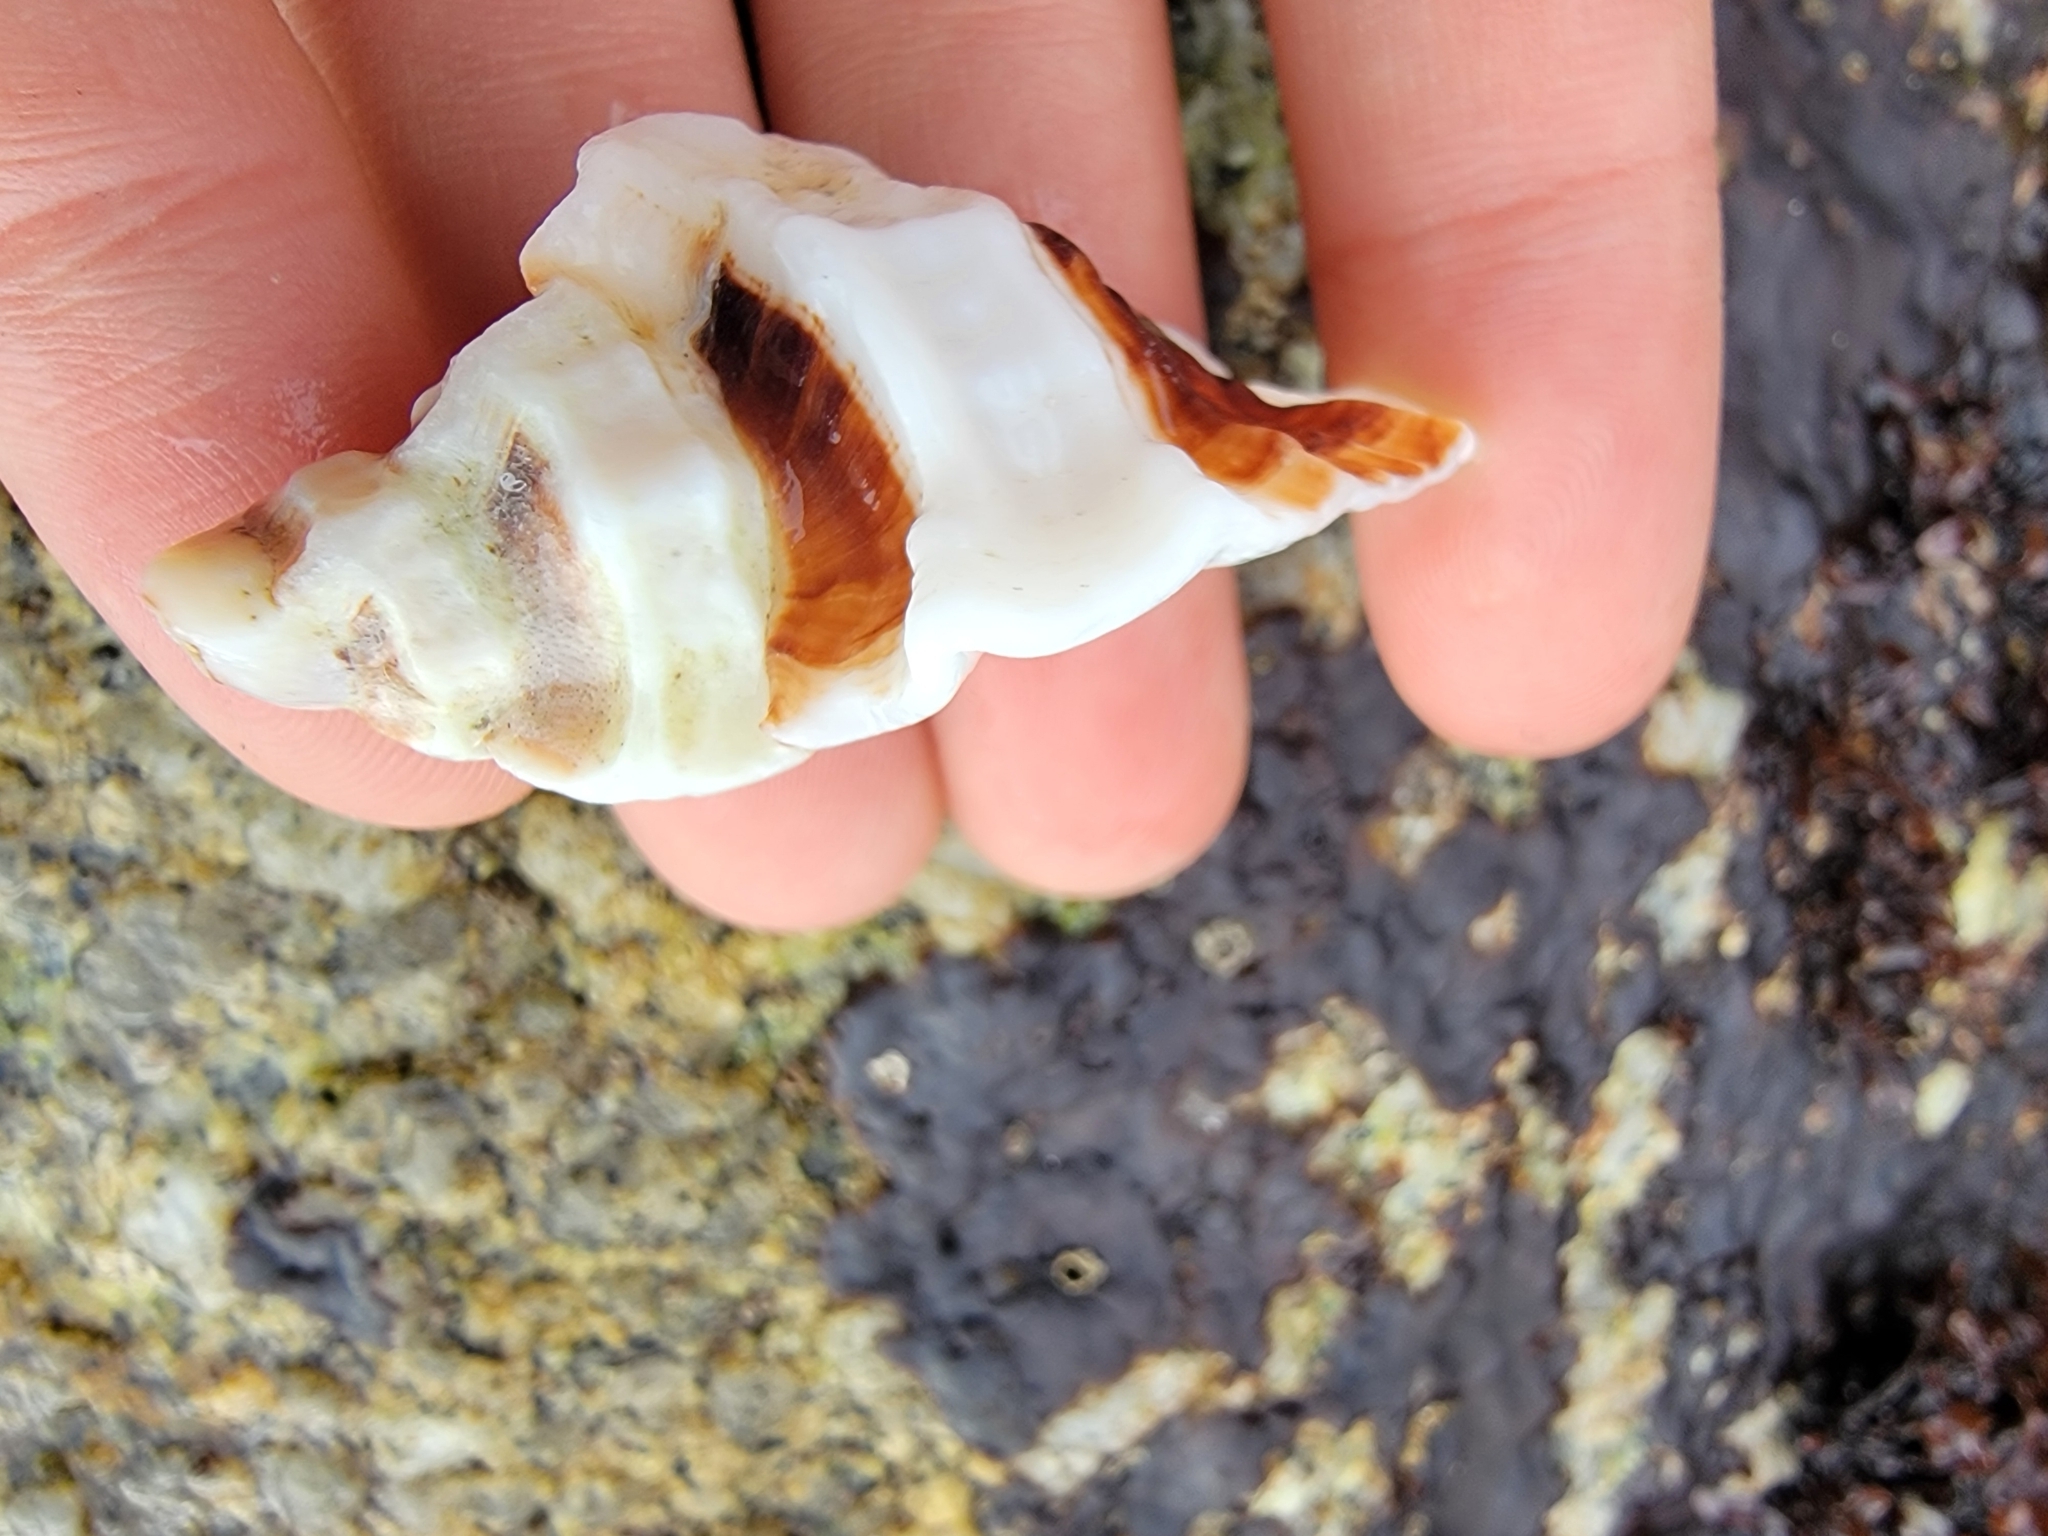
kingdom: Animalia
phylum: Mollusca
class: Gastropoda
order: Neogastropoda
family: Muricidae
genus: Ceratostoma
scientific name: Ceratostoma foliatum
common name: Foliate thorn purpura
